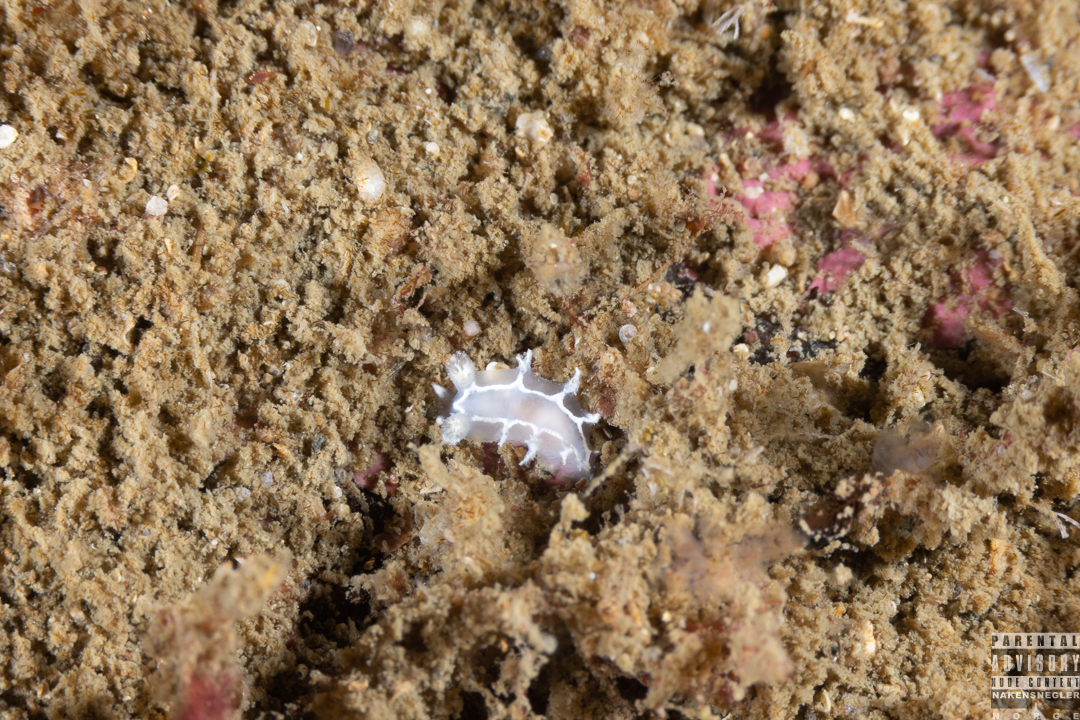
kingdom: Animalia
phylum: Mollusca
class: Gastropoda
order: Nudibranchia
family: Tritoniidae
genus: Duvaucelia
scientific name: Duvaucelia lineata
